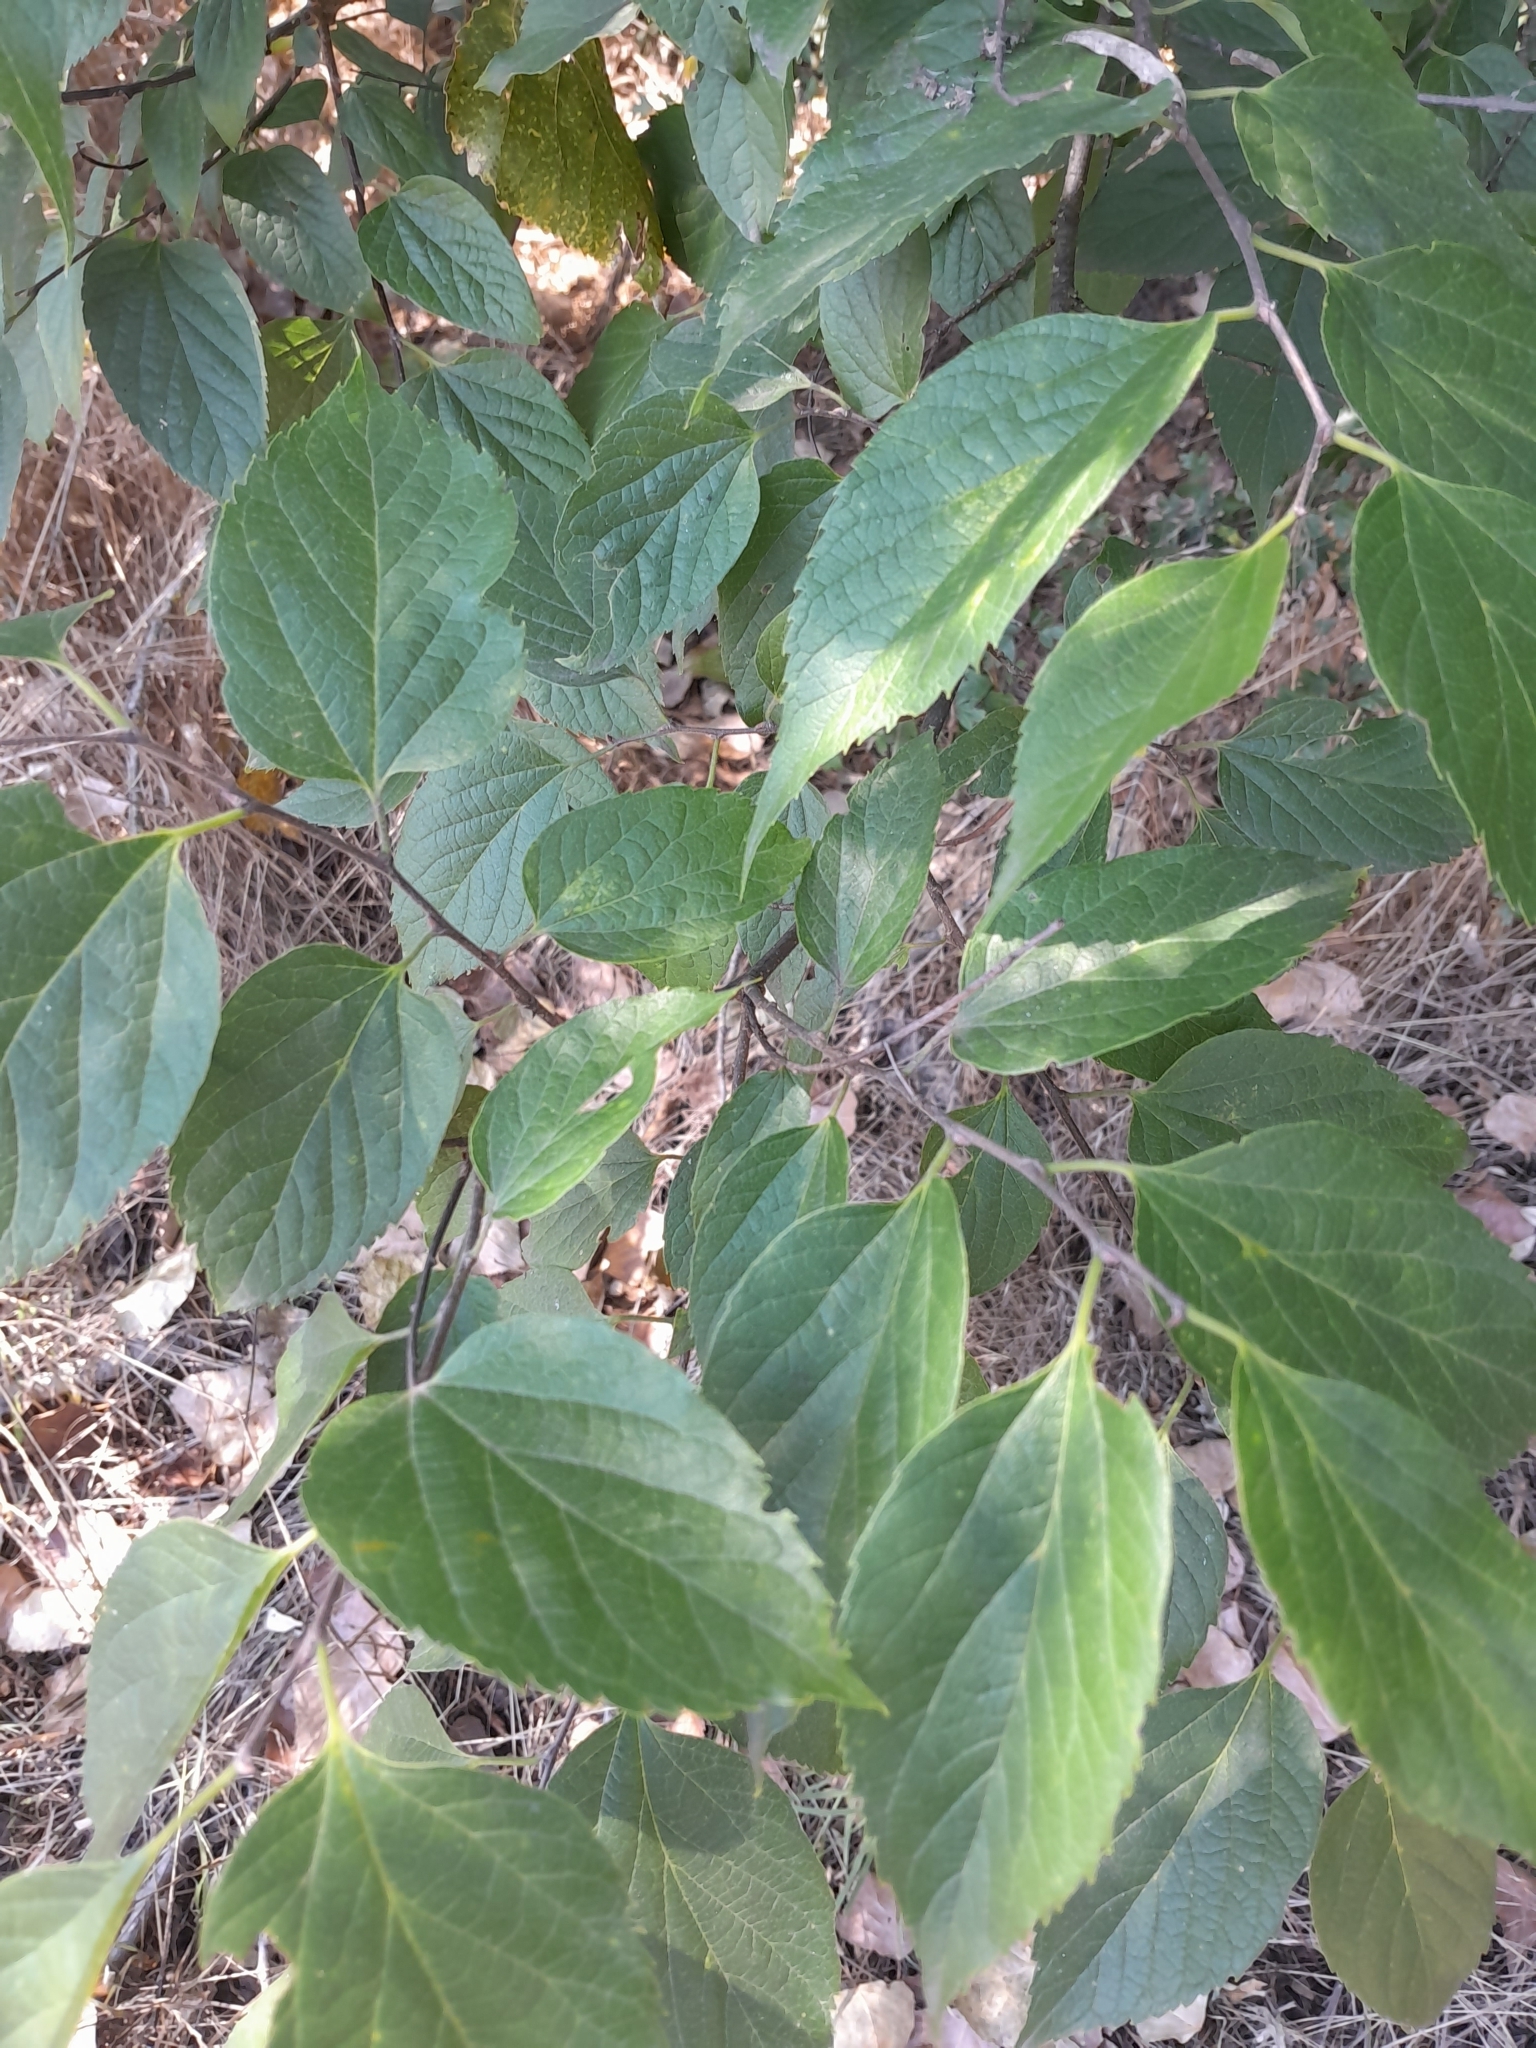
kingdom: Plantae
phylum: Tracheophyta
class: Magnoliopsida
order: Rosales
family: Cannabaceae
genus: Celtis
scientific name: Celtis occidentalis
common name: Common hackberry
